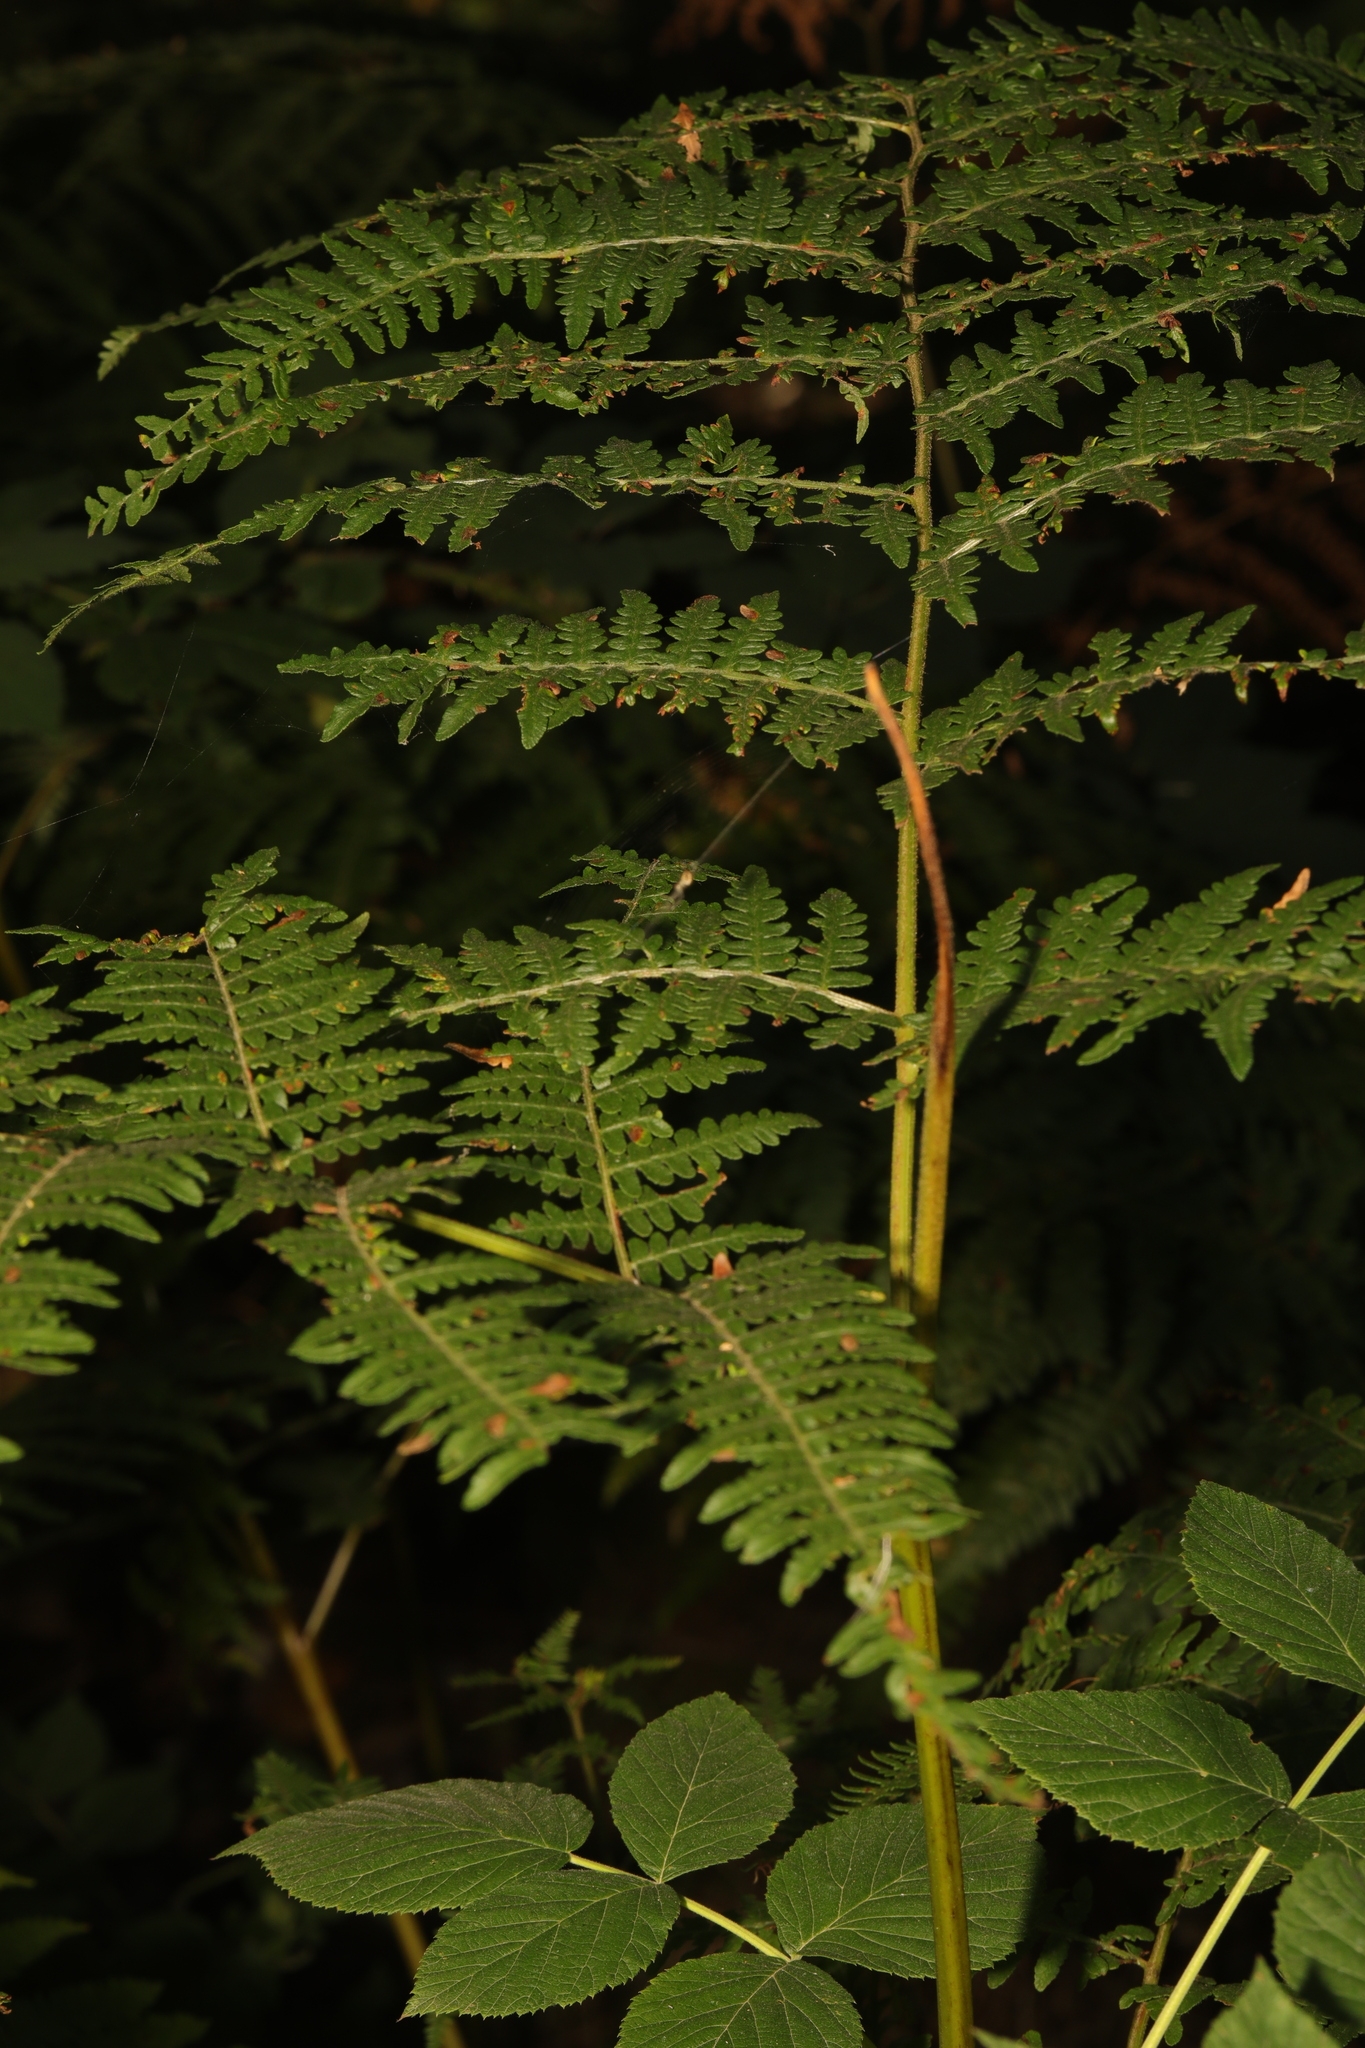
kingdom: Plantae
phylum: Tracheophyta
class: Polypodiopsida
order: Polypodiales
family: Dennstaedtiaceae
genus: Pteridium
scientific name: Pteridium aquilinum
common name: Bracken
